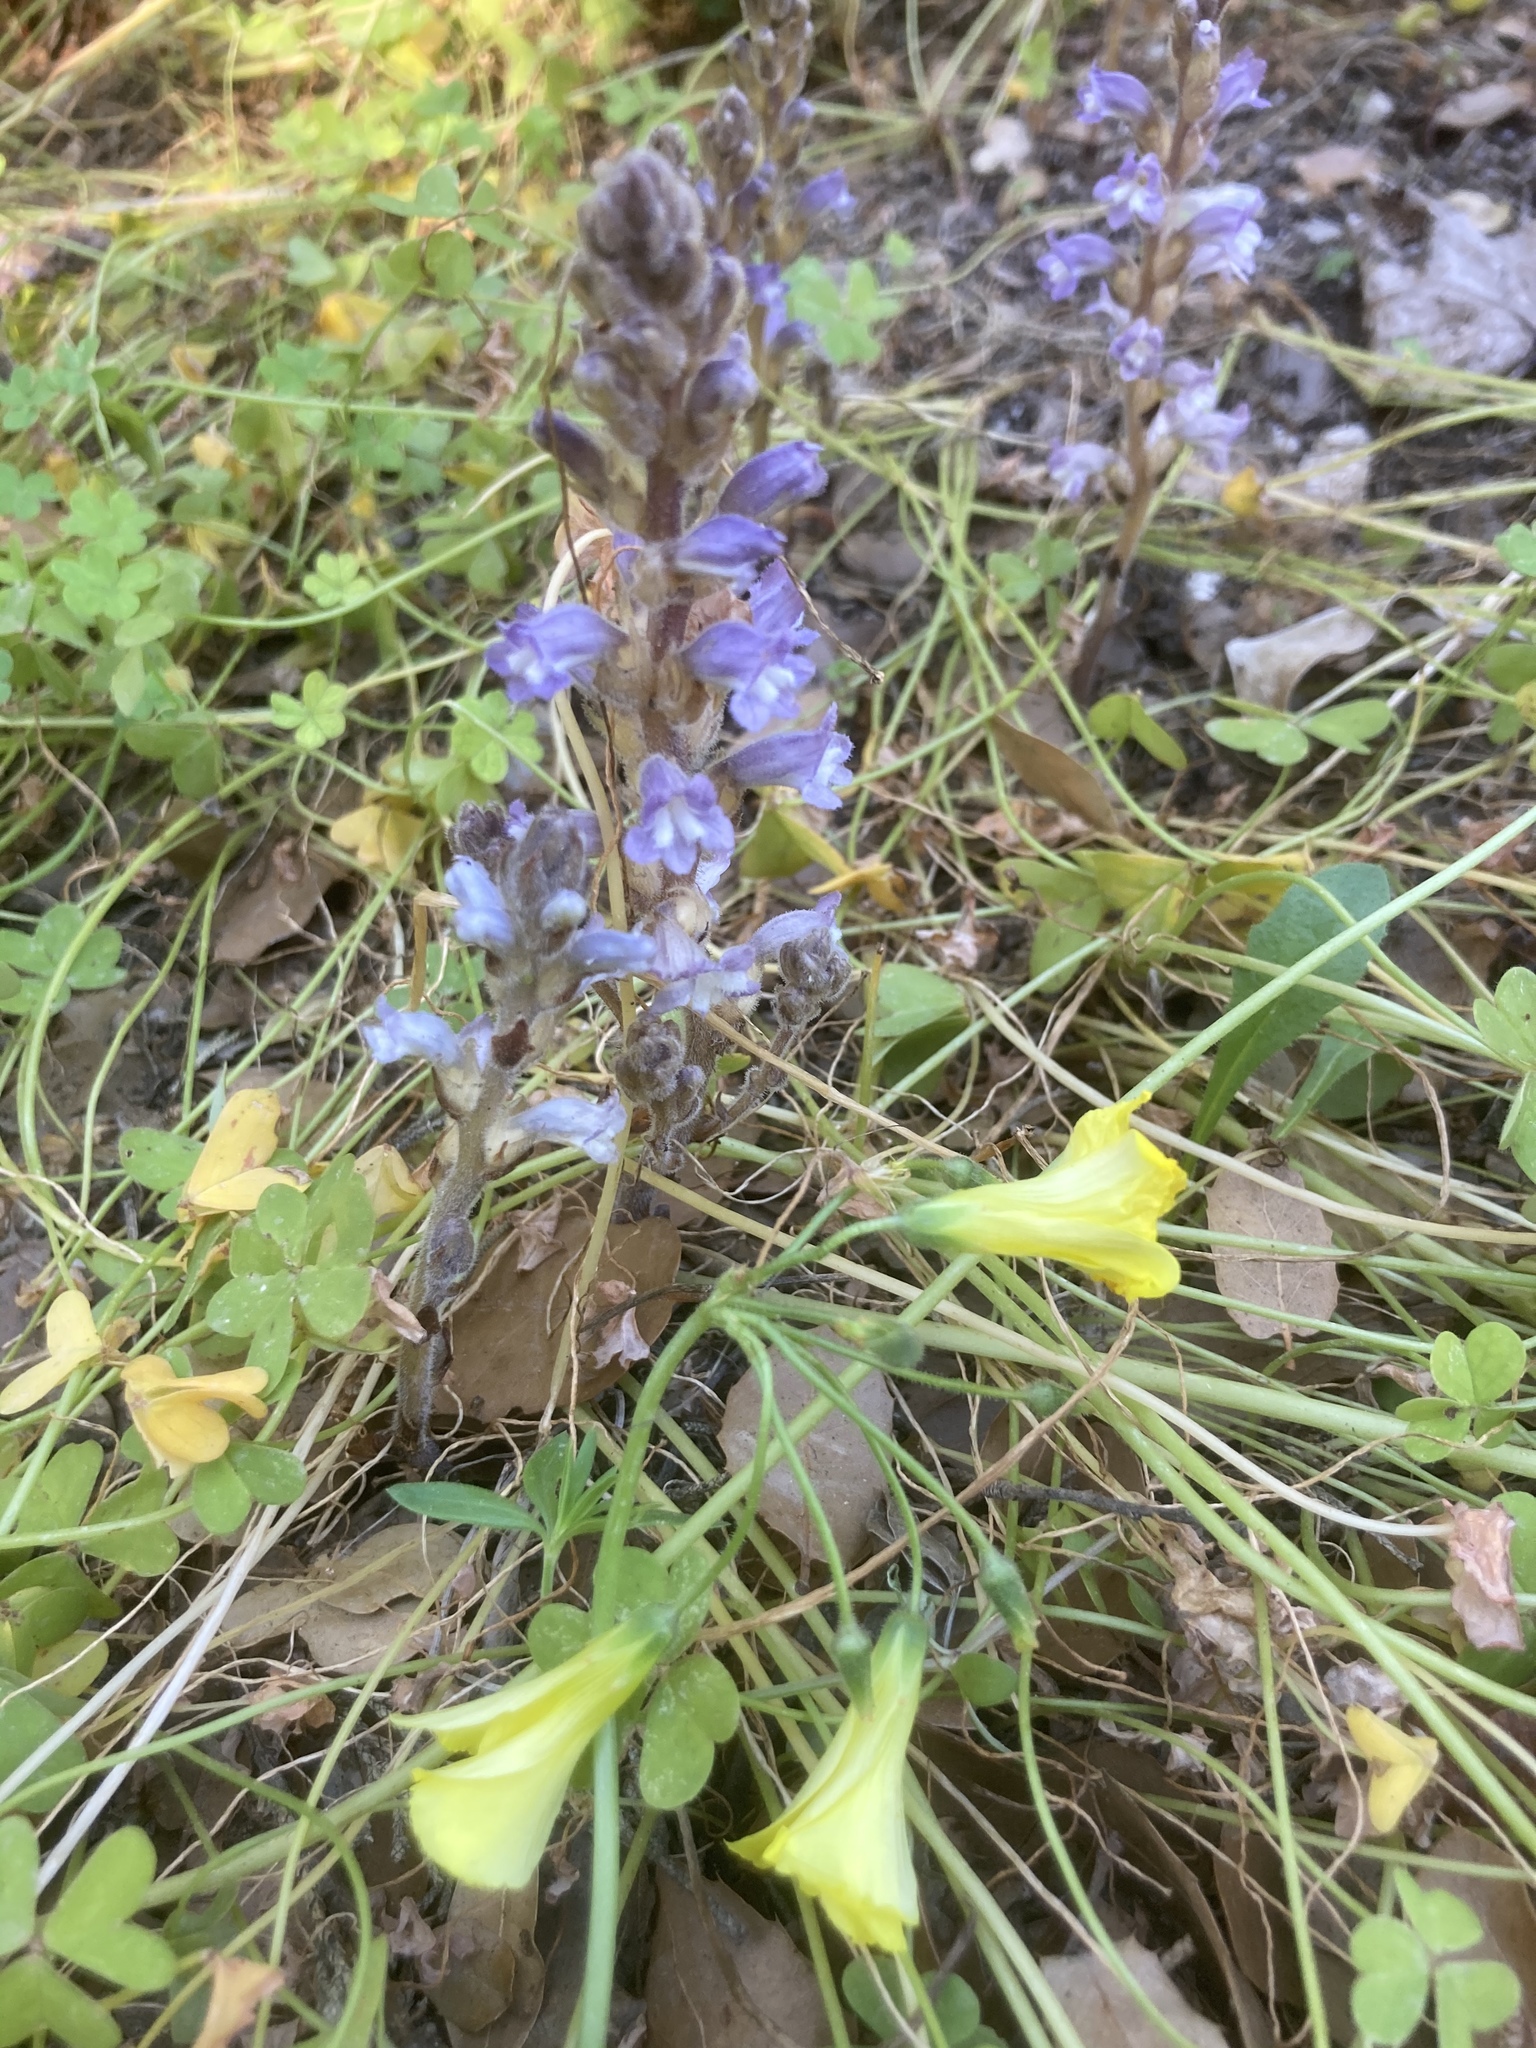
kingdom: Plantae
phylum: Tracheophyta
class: Magnoliopsida
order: Oxalidales
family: Oxalidaceae
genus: Oxalis
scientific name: Oxalis pes-caprae
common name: Bermuda-buttercup
